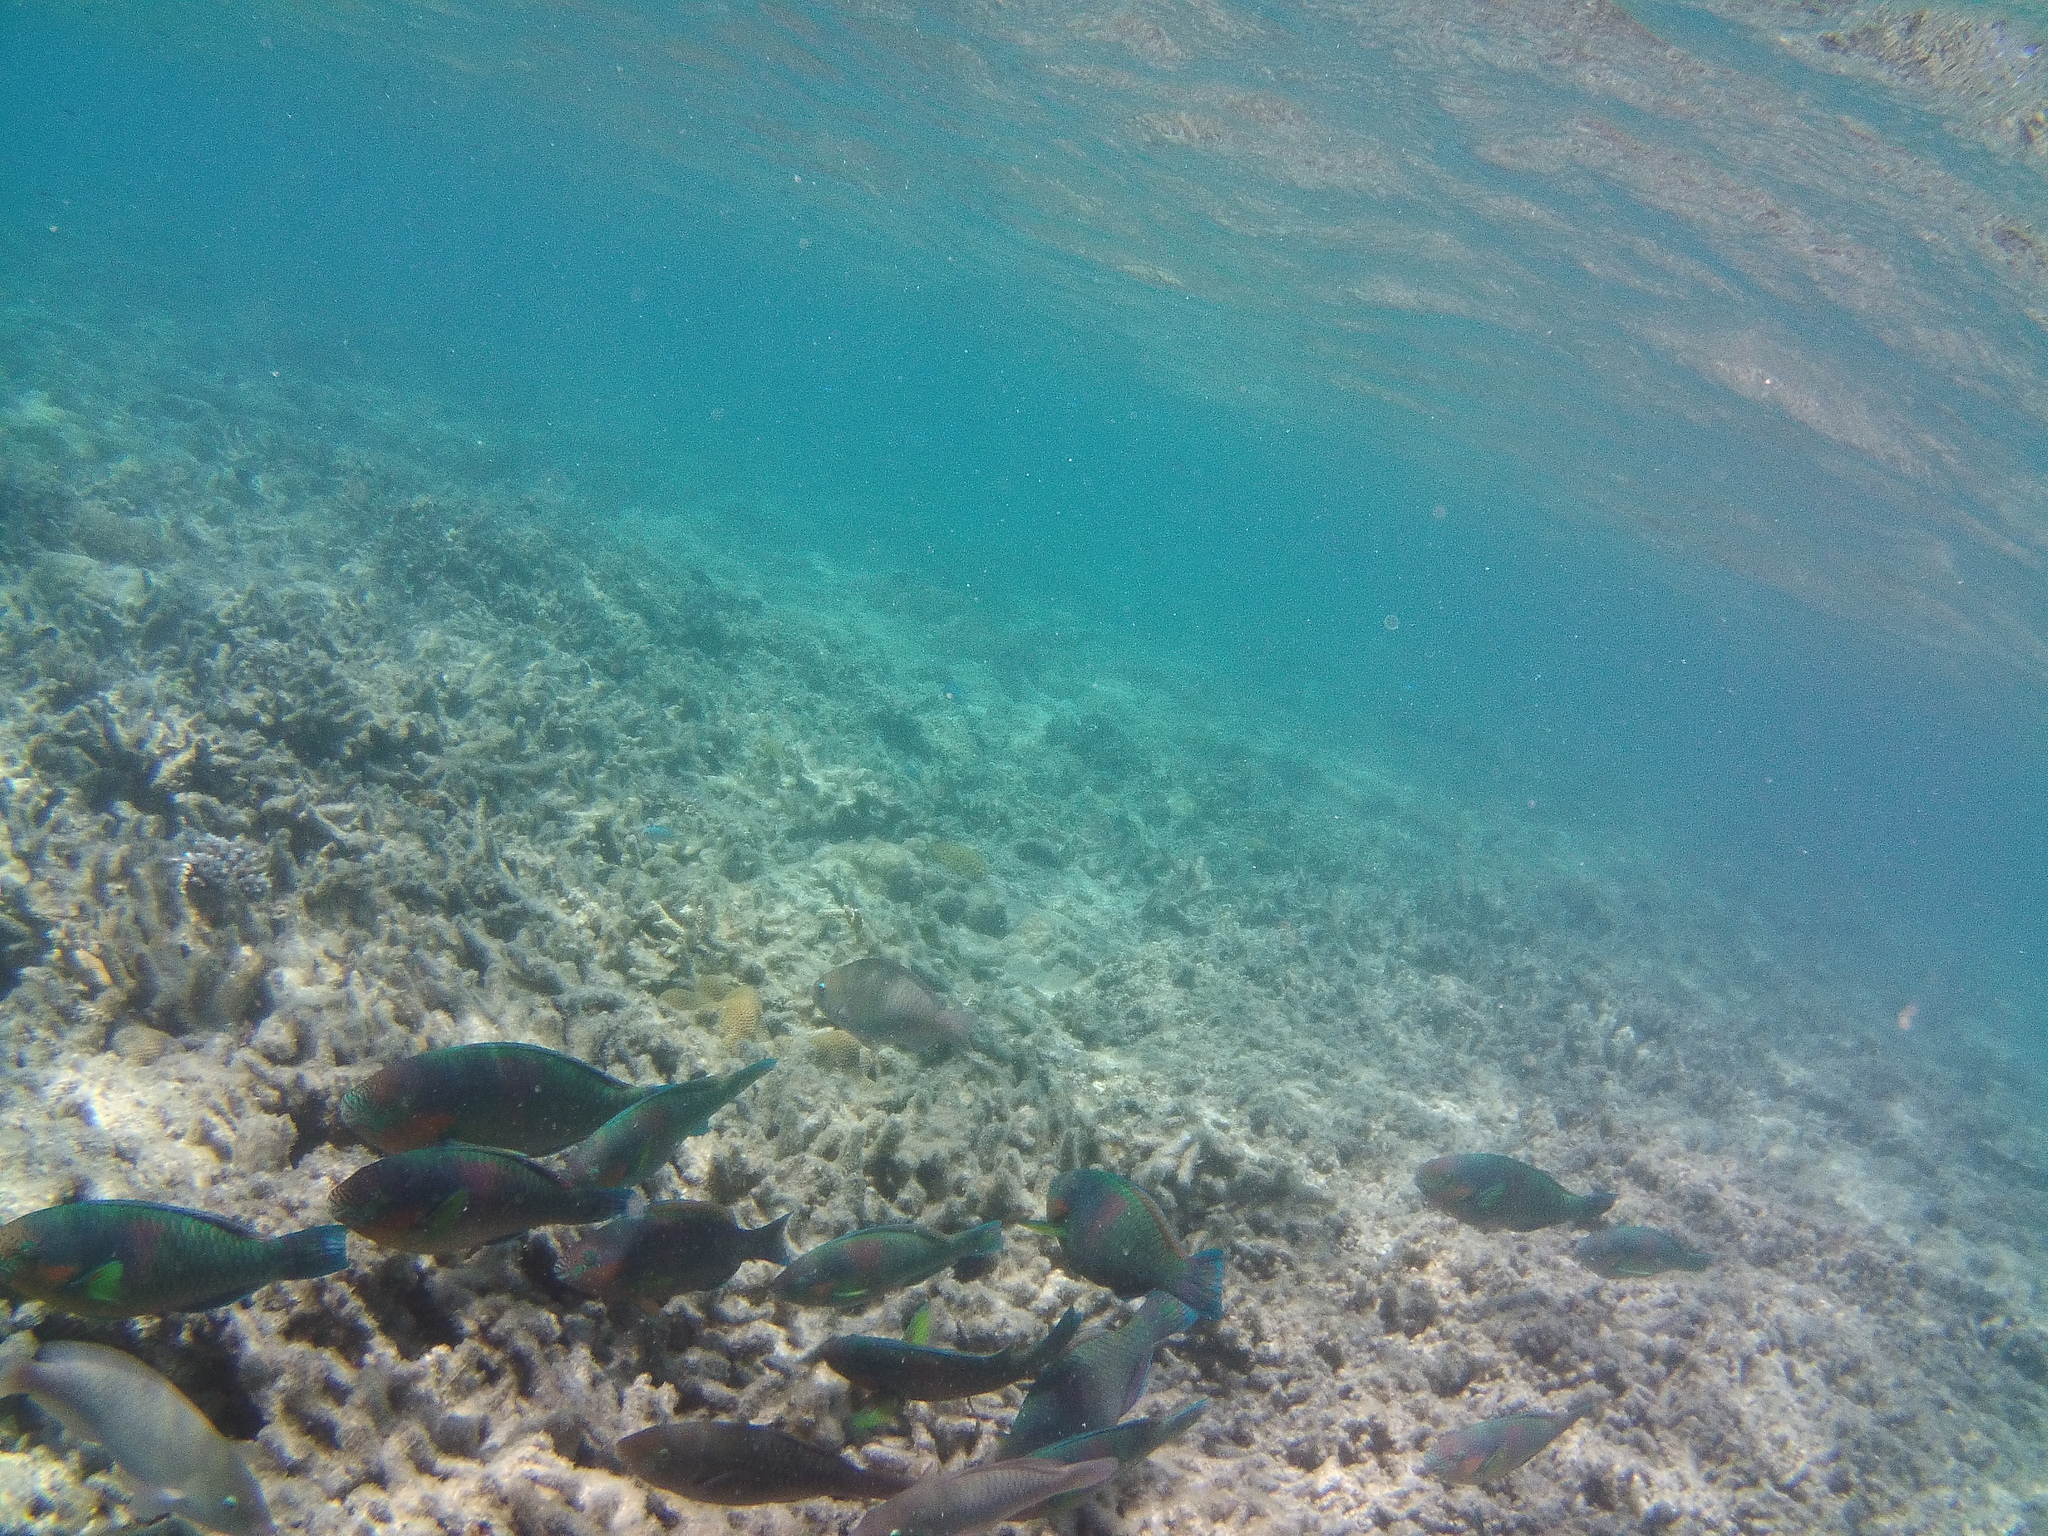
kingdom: Animalia
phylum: Chordata
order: Perciformes
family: Scaridae
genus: Scarus
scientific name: Scarus rivulatus
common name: Surf parrotfish
